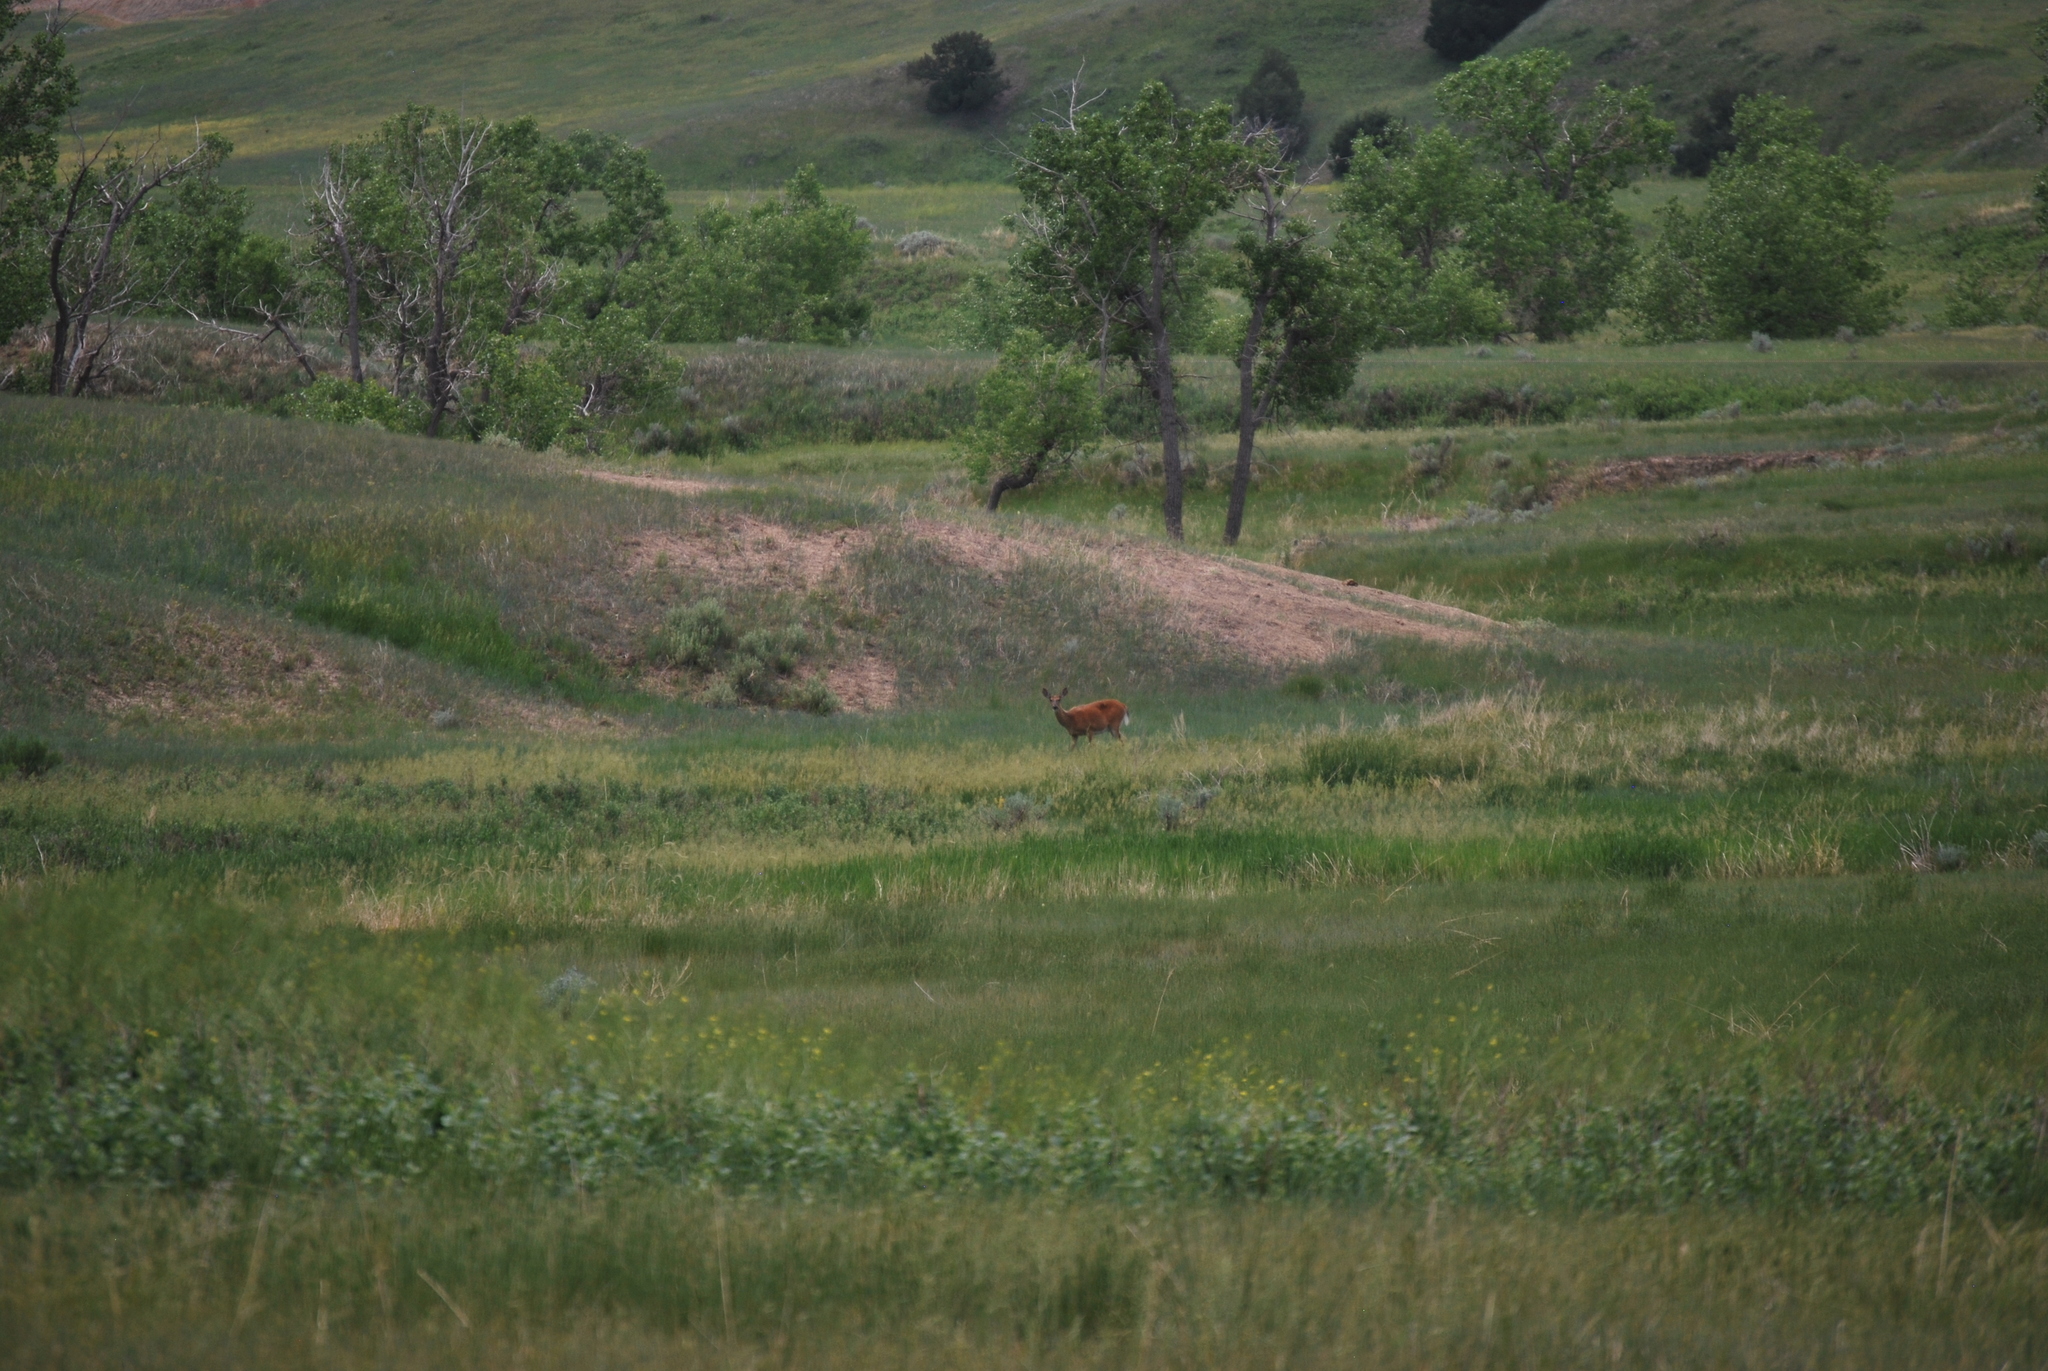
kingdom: Animalia
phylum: Chordata
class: Mammalia
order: Artiodactyla
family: Cervidae
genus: Odocoileus
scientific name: Odocoileus virginianus
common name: White-tailed deer
